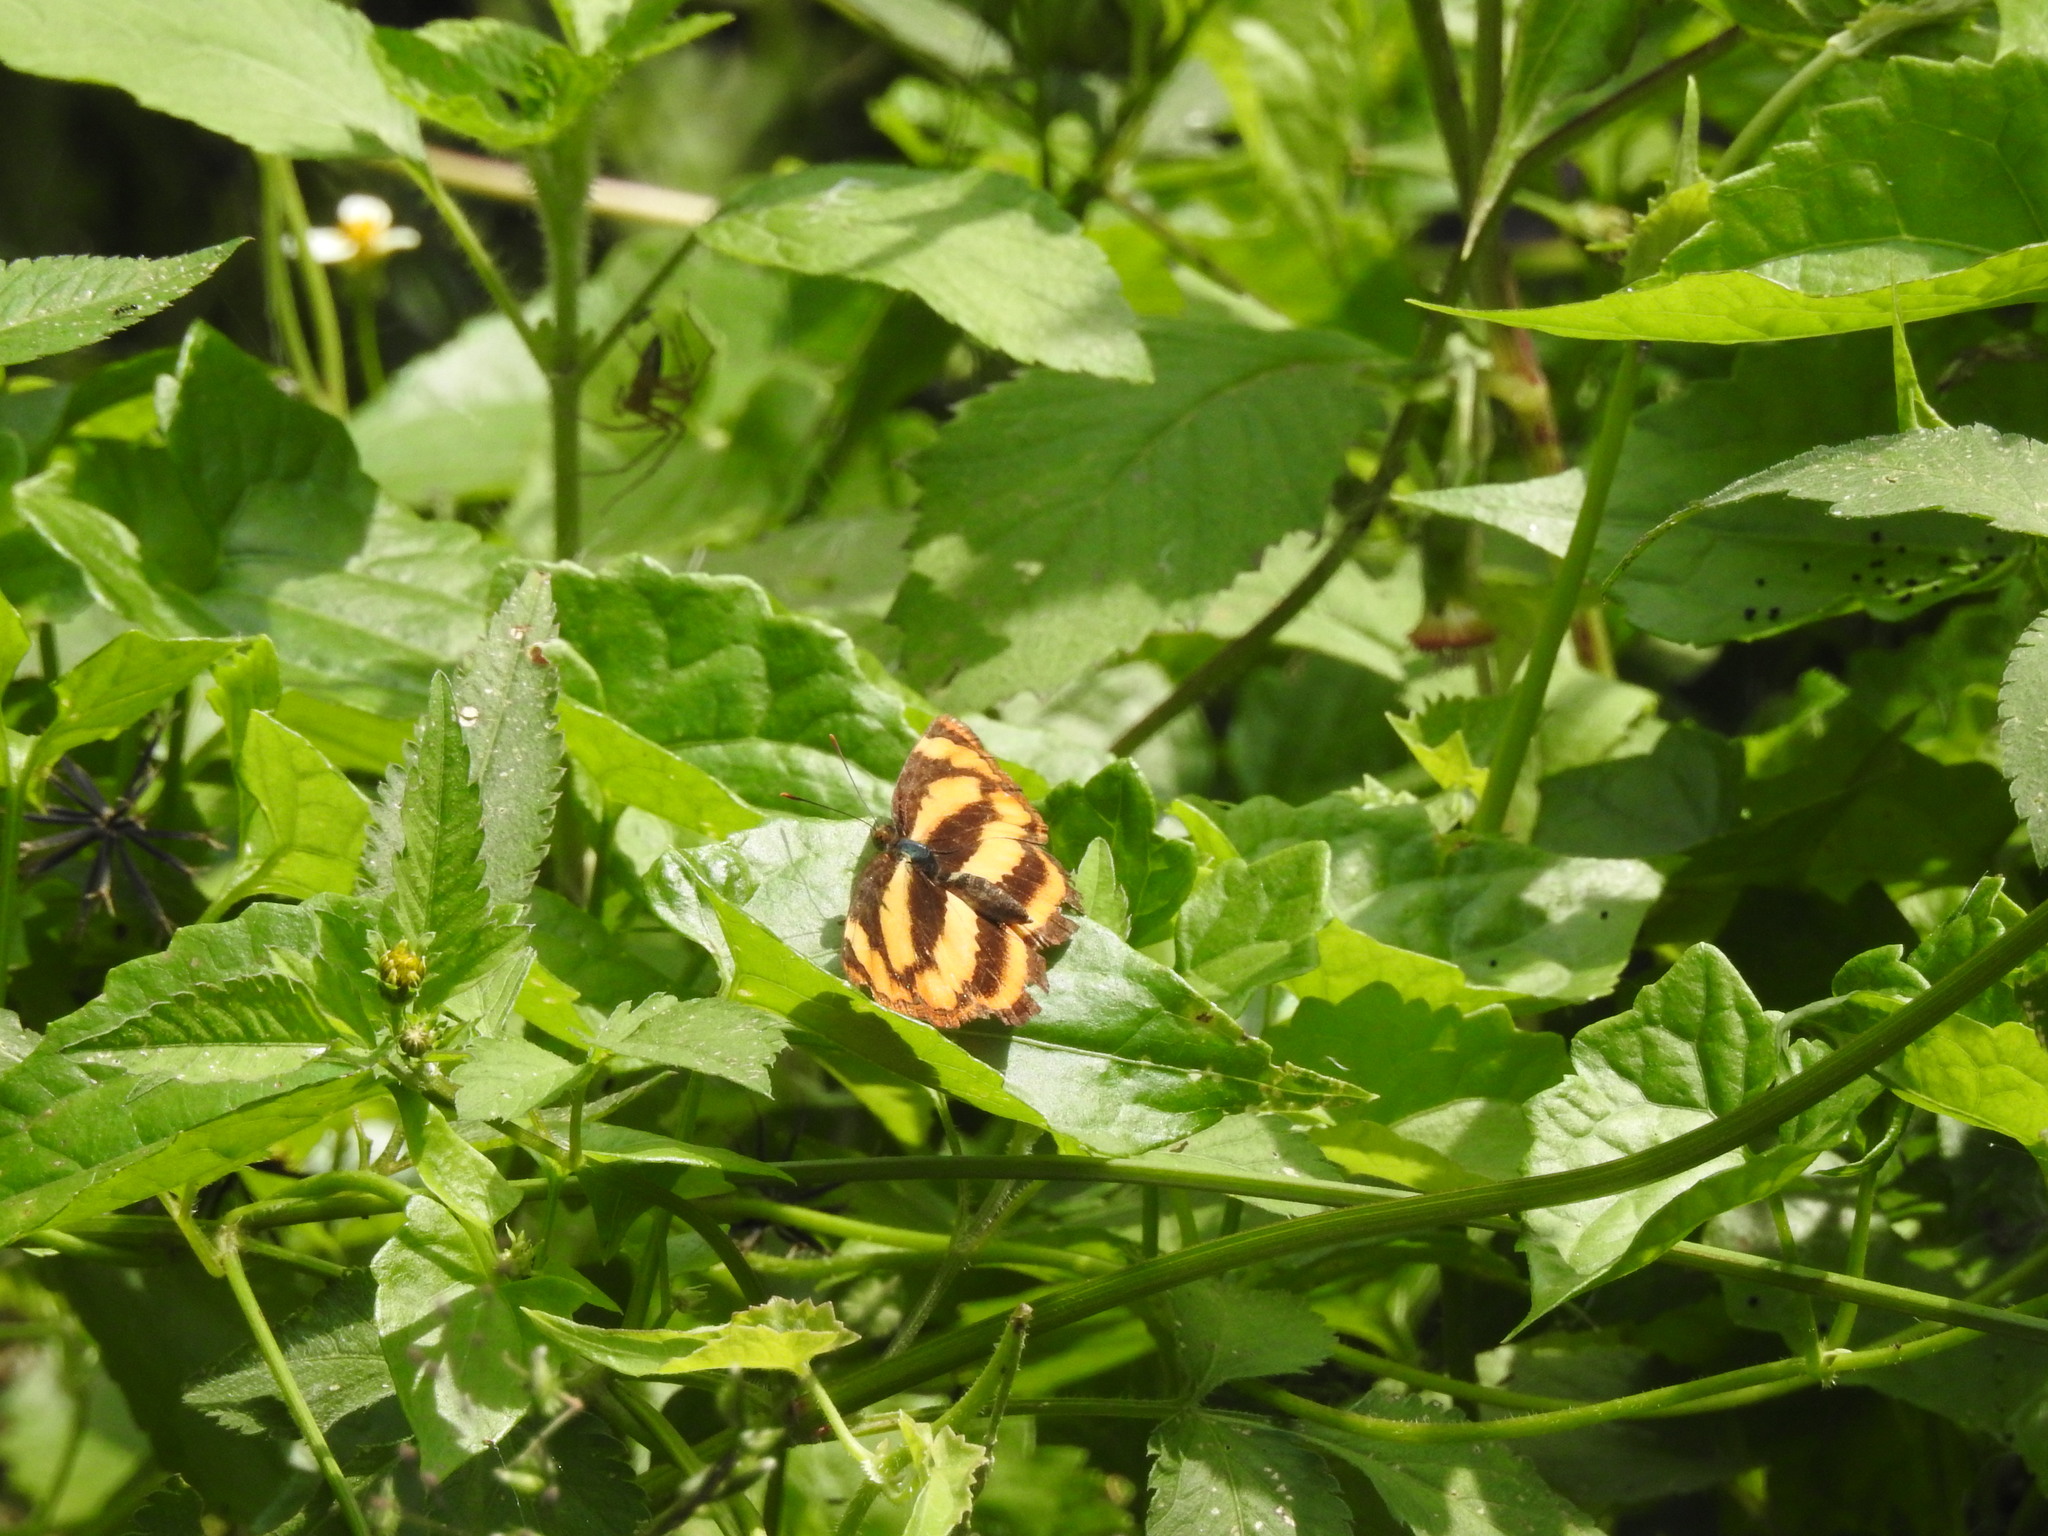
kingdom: Animalia
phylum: Arthropoda
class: Insecta
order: Lepidoptera
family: Nymphalidae
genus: Pantoporia
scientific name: Pantoporia hordonia
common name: Common lascar
